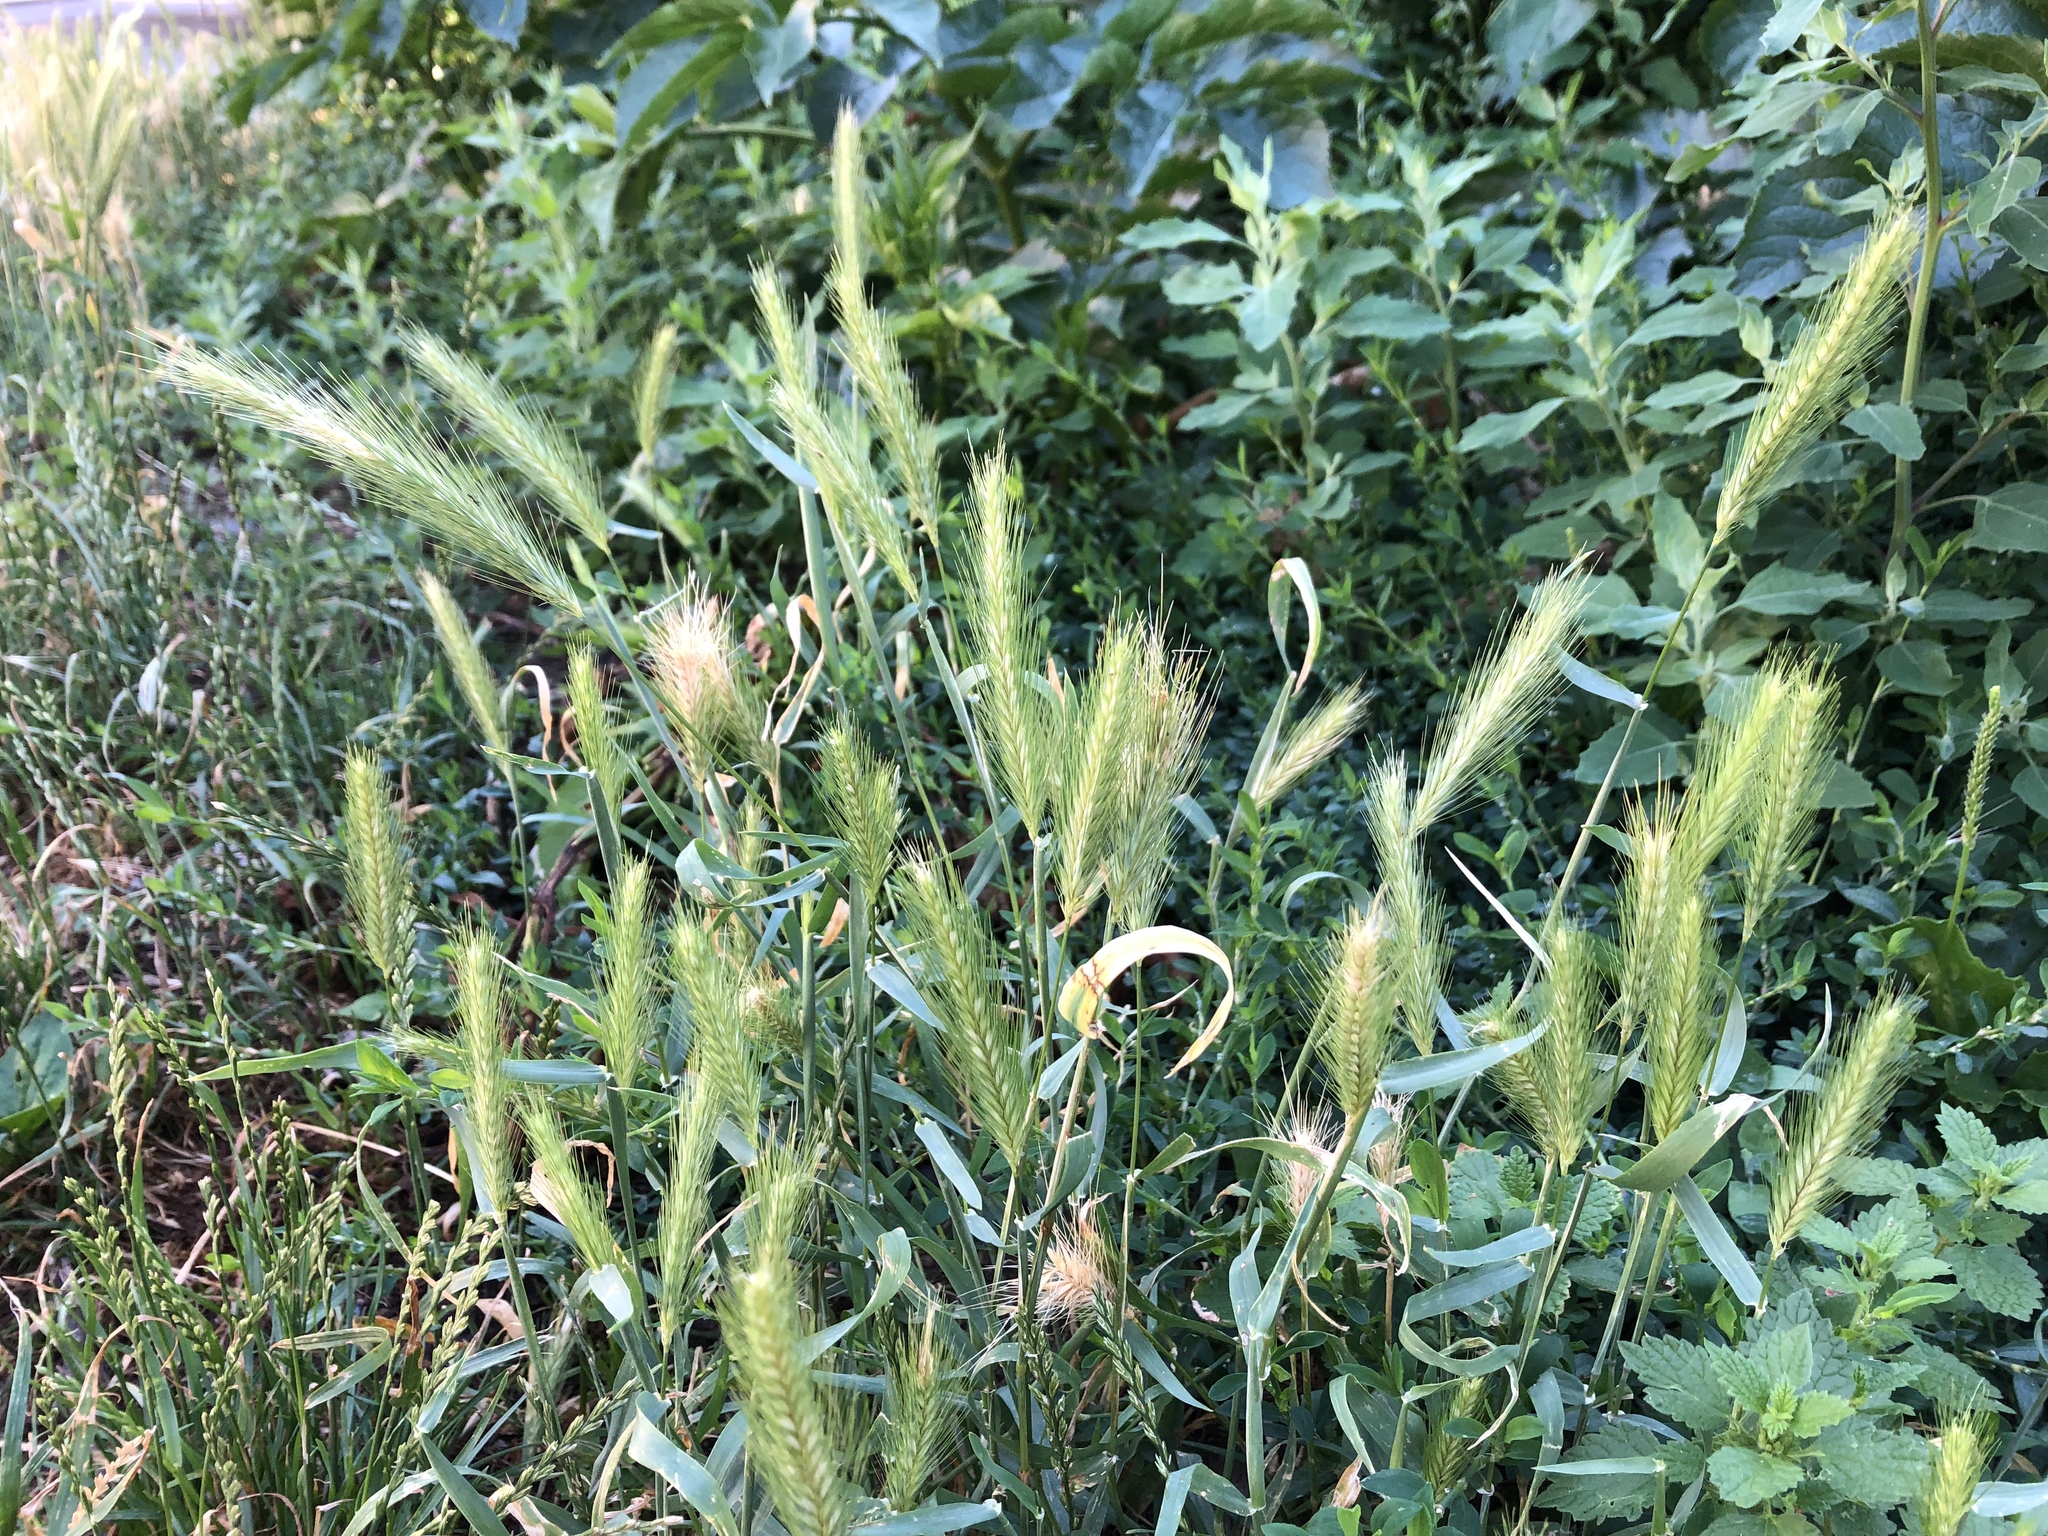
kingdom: Plantae
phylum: Tracheophyta
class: Liliopsida
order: Poales
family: Poaceae
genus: Hordeum
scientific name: Hordeum murinum
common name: Wall barley
